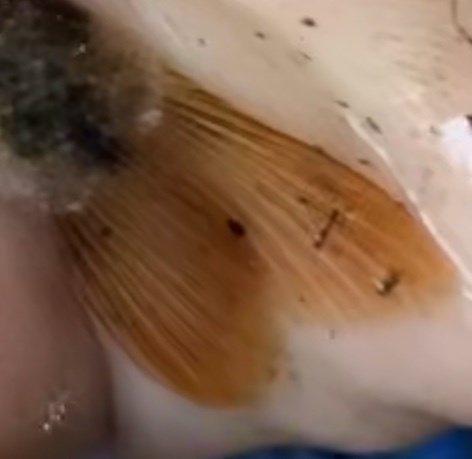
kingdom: Animalia
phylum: Platyhelminthes
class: Trematoda
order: Diplostomida
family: Diplostomidae
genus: Neascus
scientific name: Neascus
